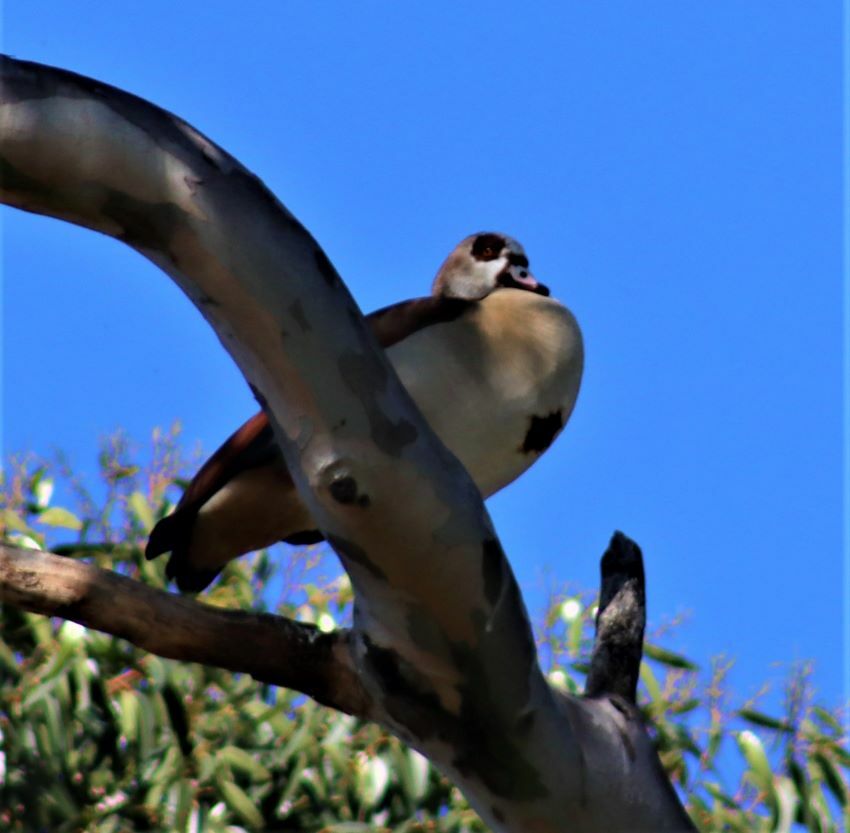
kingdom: Animalia
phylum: Chordata
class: Aves
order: Anseriformes
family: Anatidae
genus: Alopochen
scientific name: Alopochen aegyptiaca
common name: Egyptian goose
